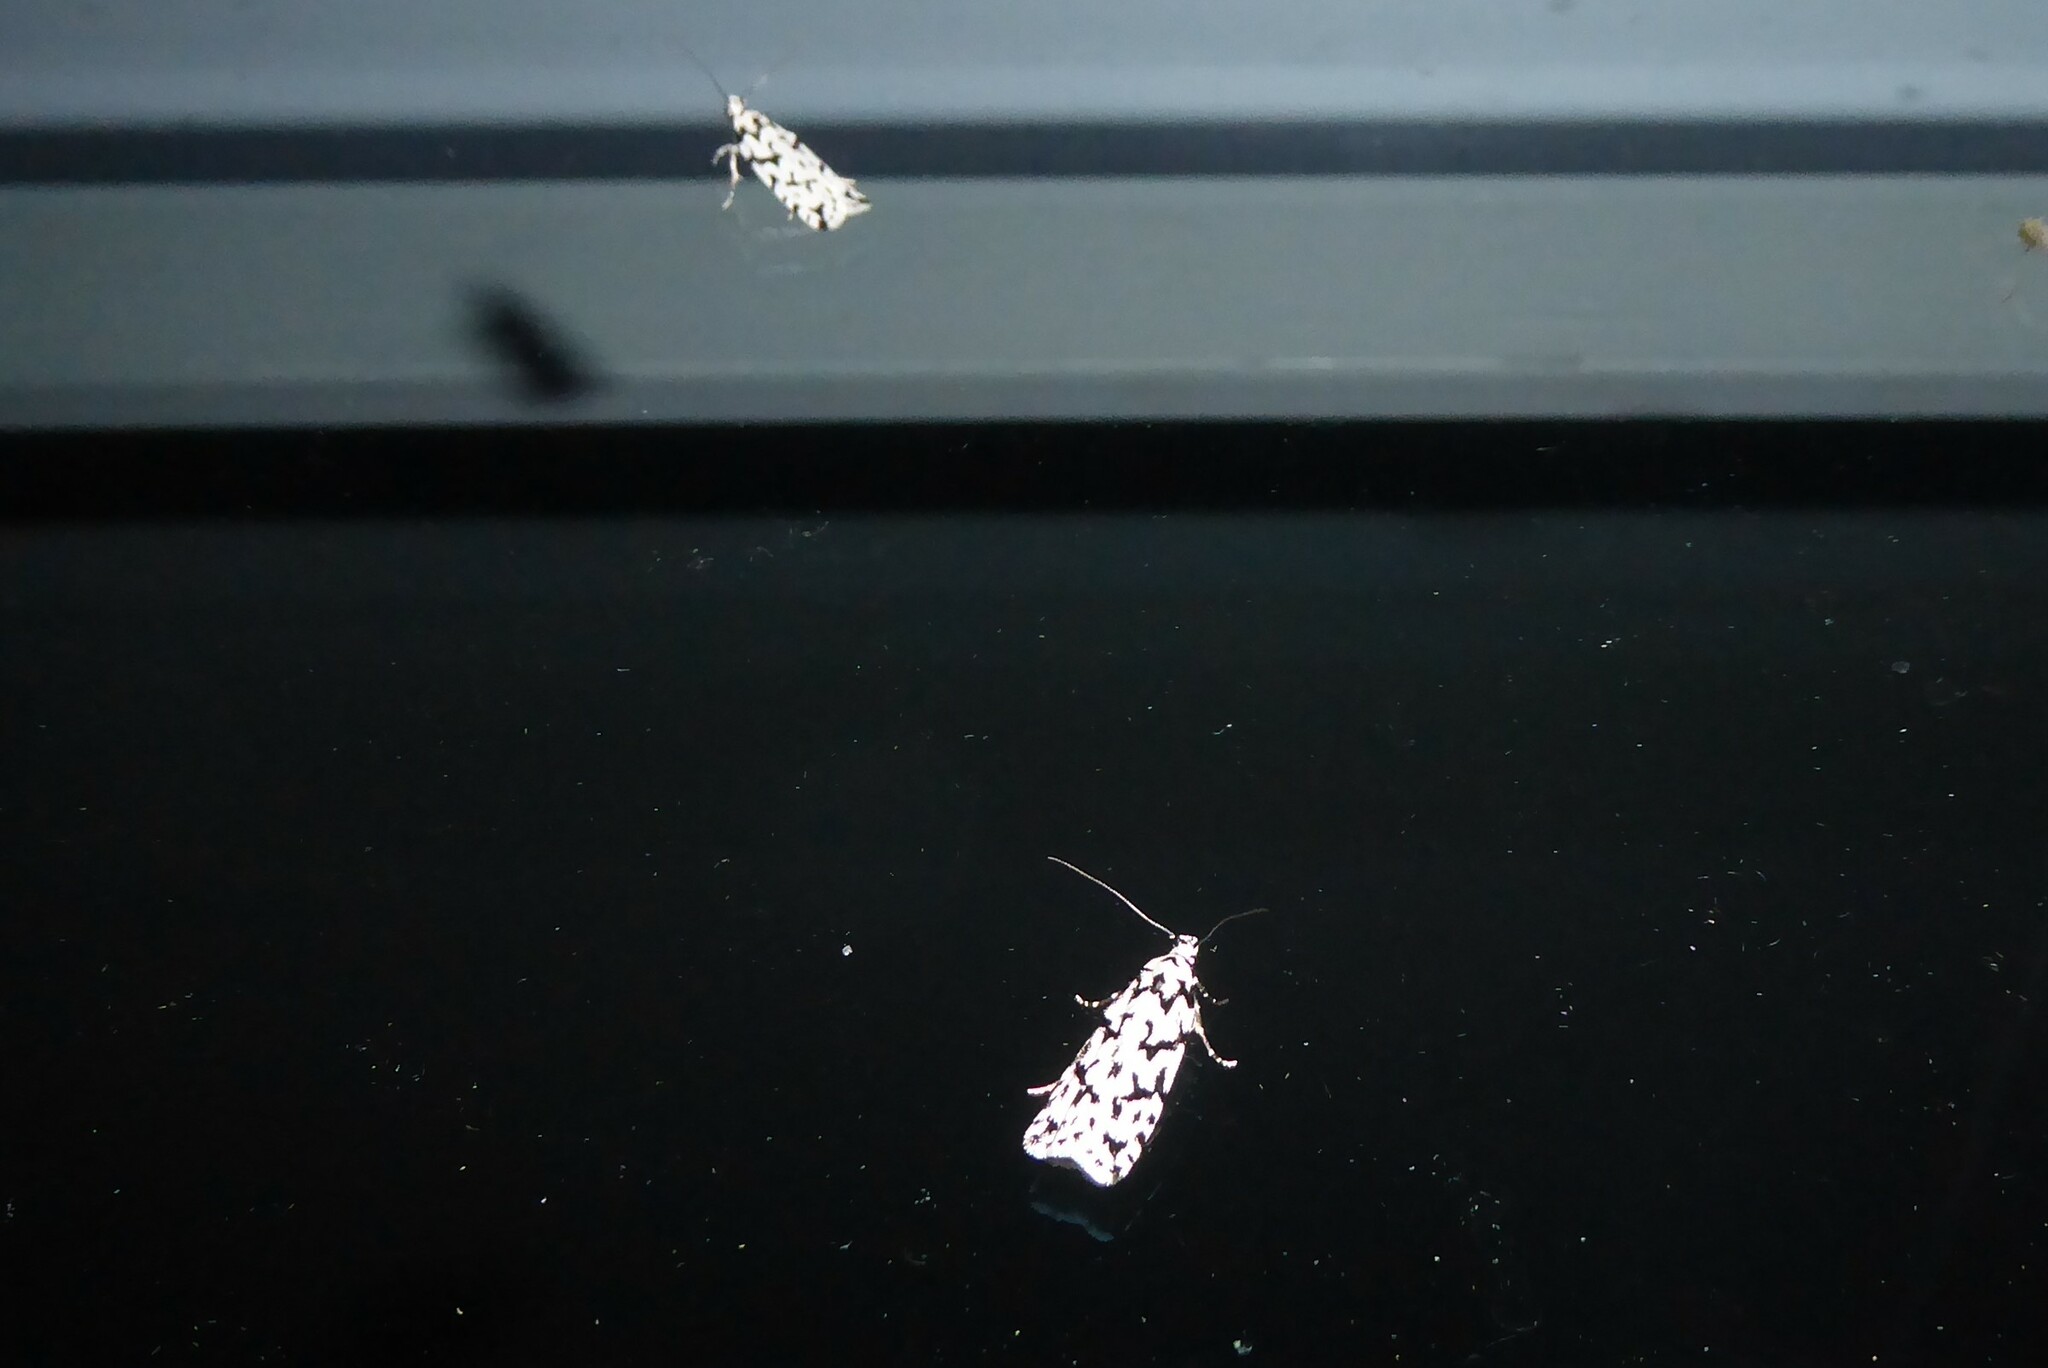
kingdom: Animalia
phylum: Arthropoda
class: Insecta
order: Lepidoptera
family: Oecophoridae
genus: Izatha
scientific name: Izatha katadiktya
